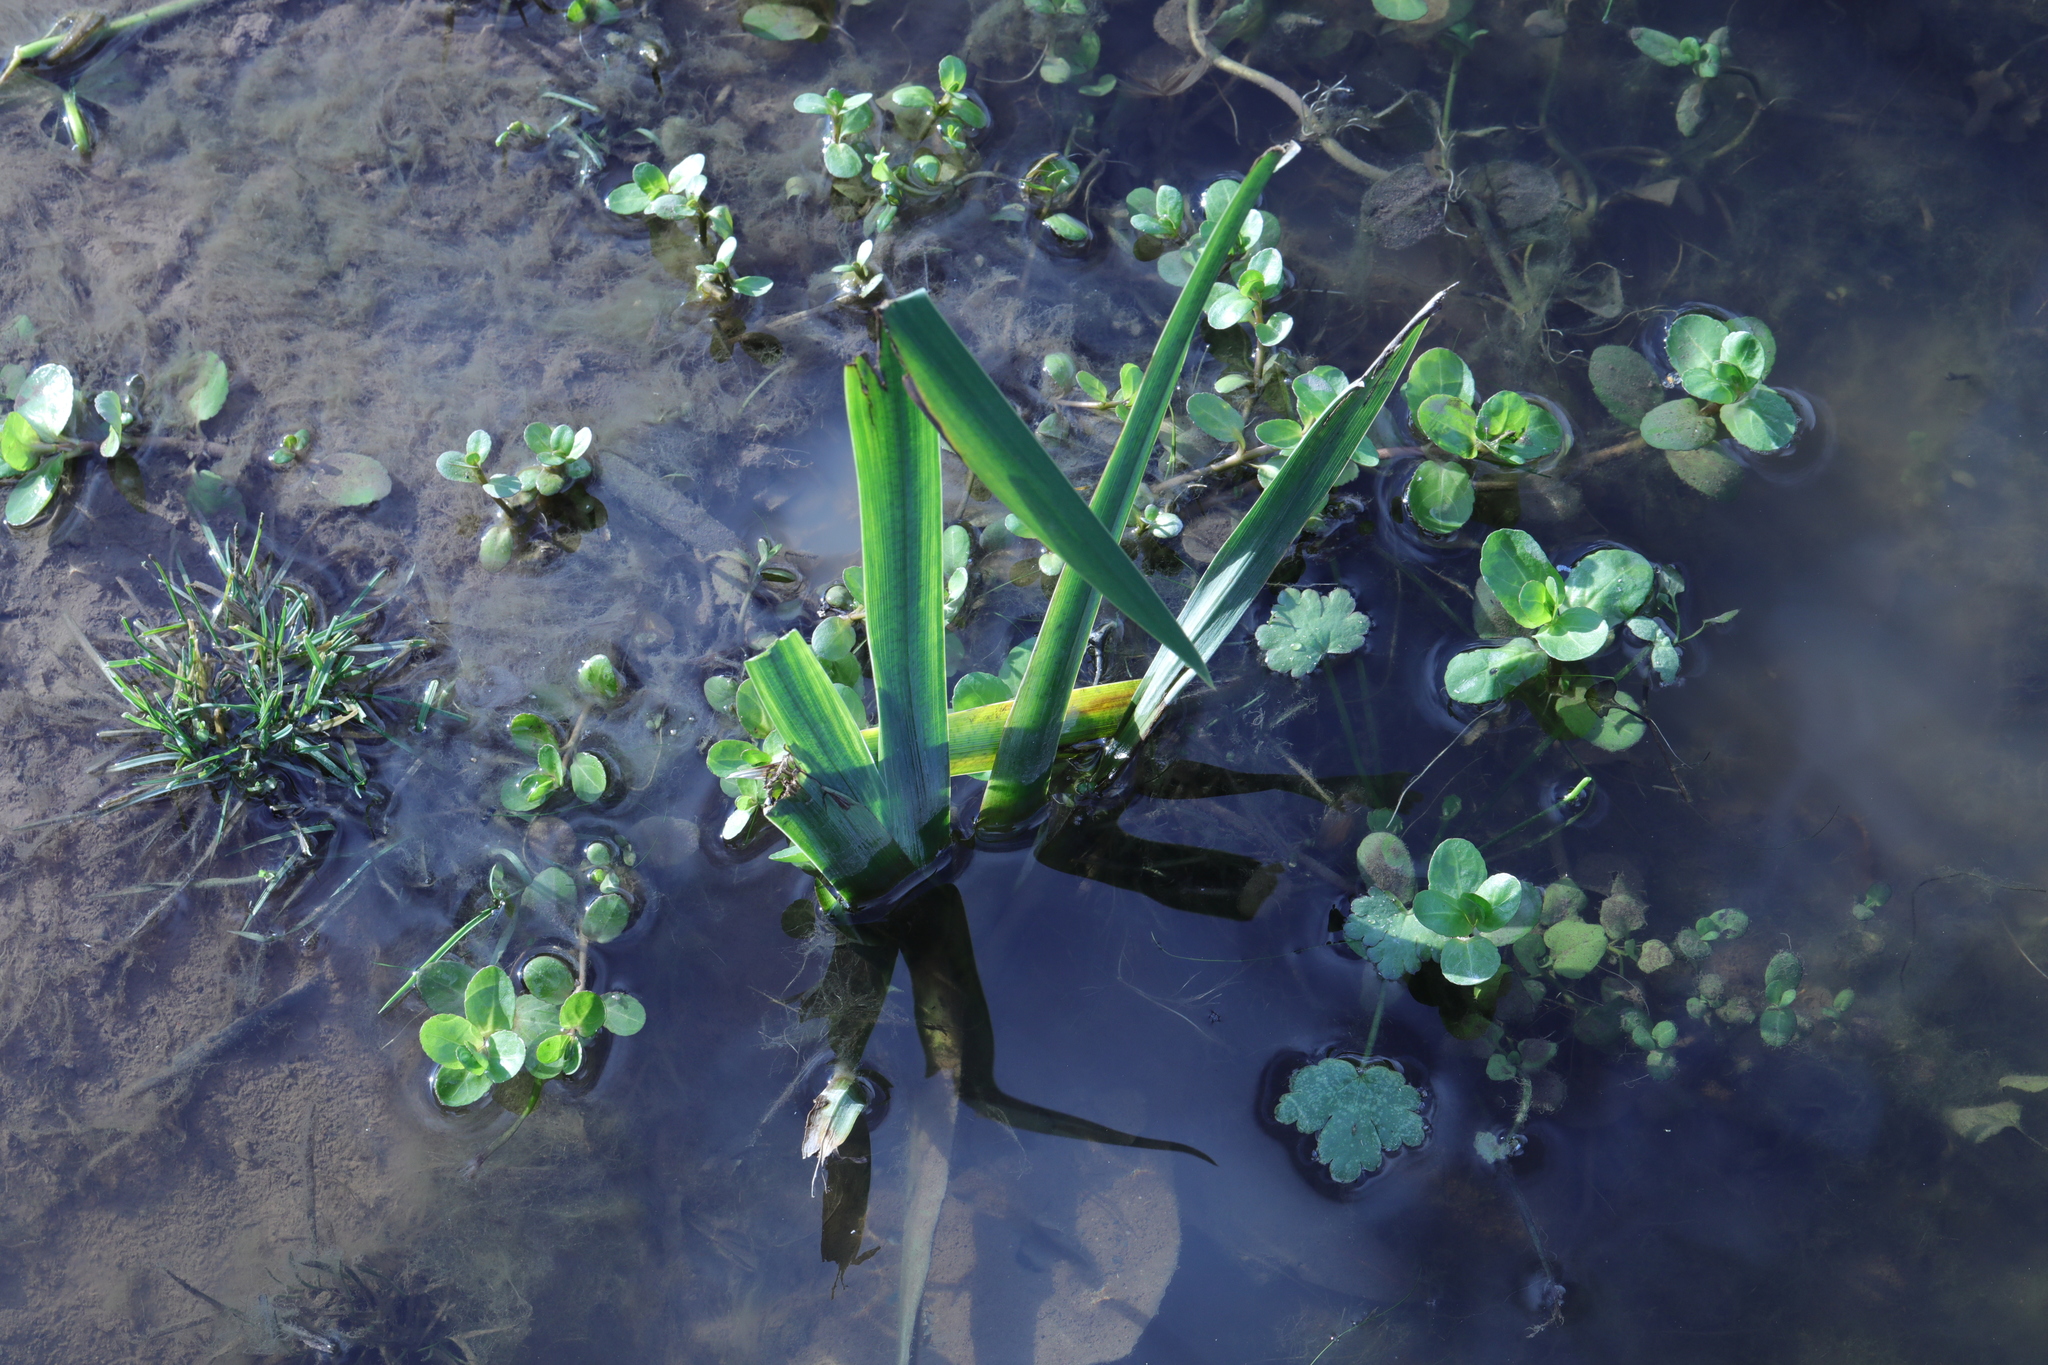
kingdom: Plantae
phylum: Tracheophyta
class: Liliopsida
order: Asparagales
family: Iridaceae
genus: Iris
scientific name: Iris pseudacorus
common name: Yellow flag
